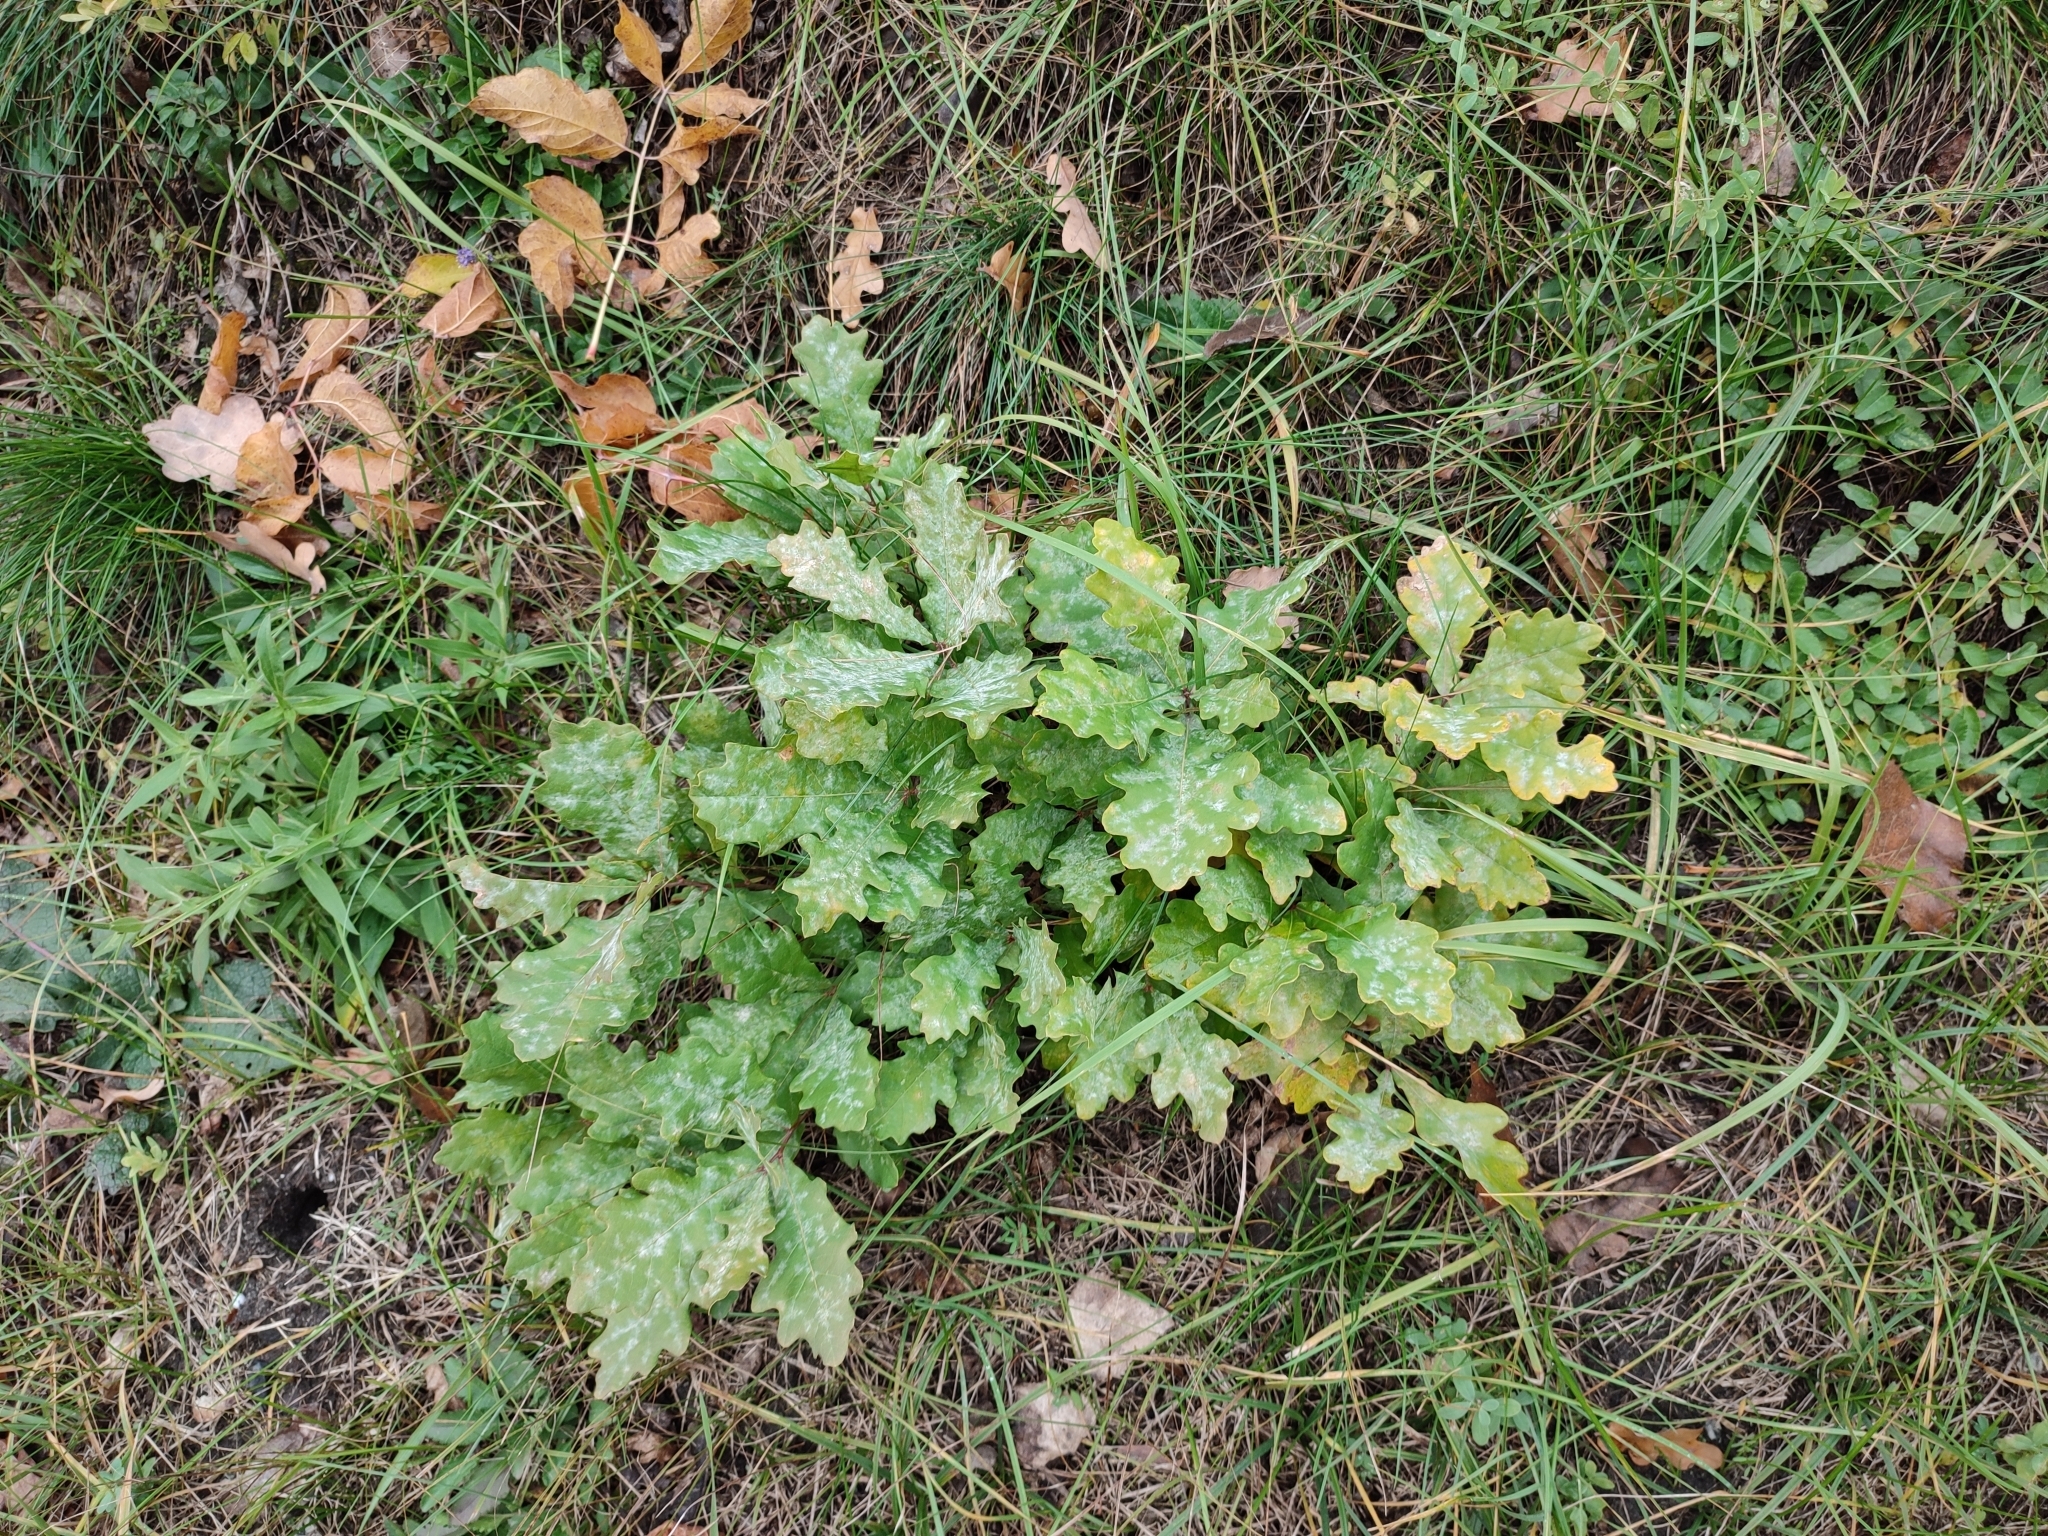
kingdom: Plantae
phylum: Tracheophyta
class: Magnoliopsida
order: Fagales
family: Fagaceae
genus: Quercus
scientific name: Quercus robur
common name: Pedunculate oak
